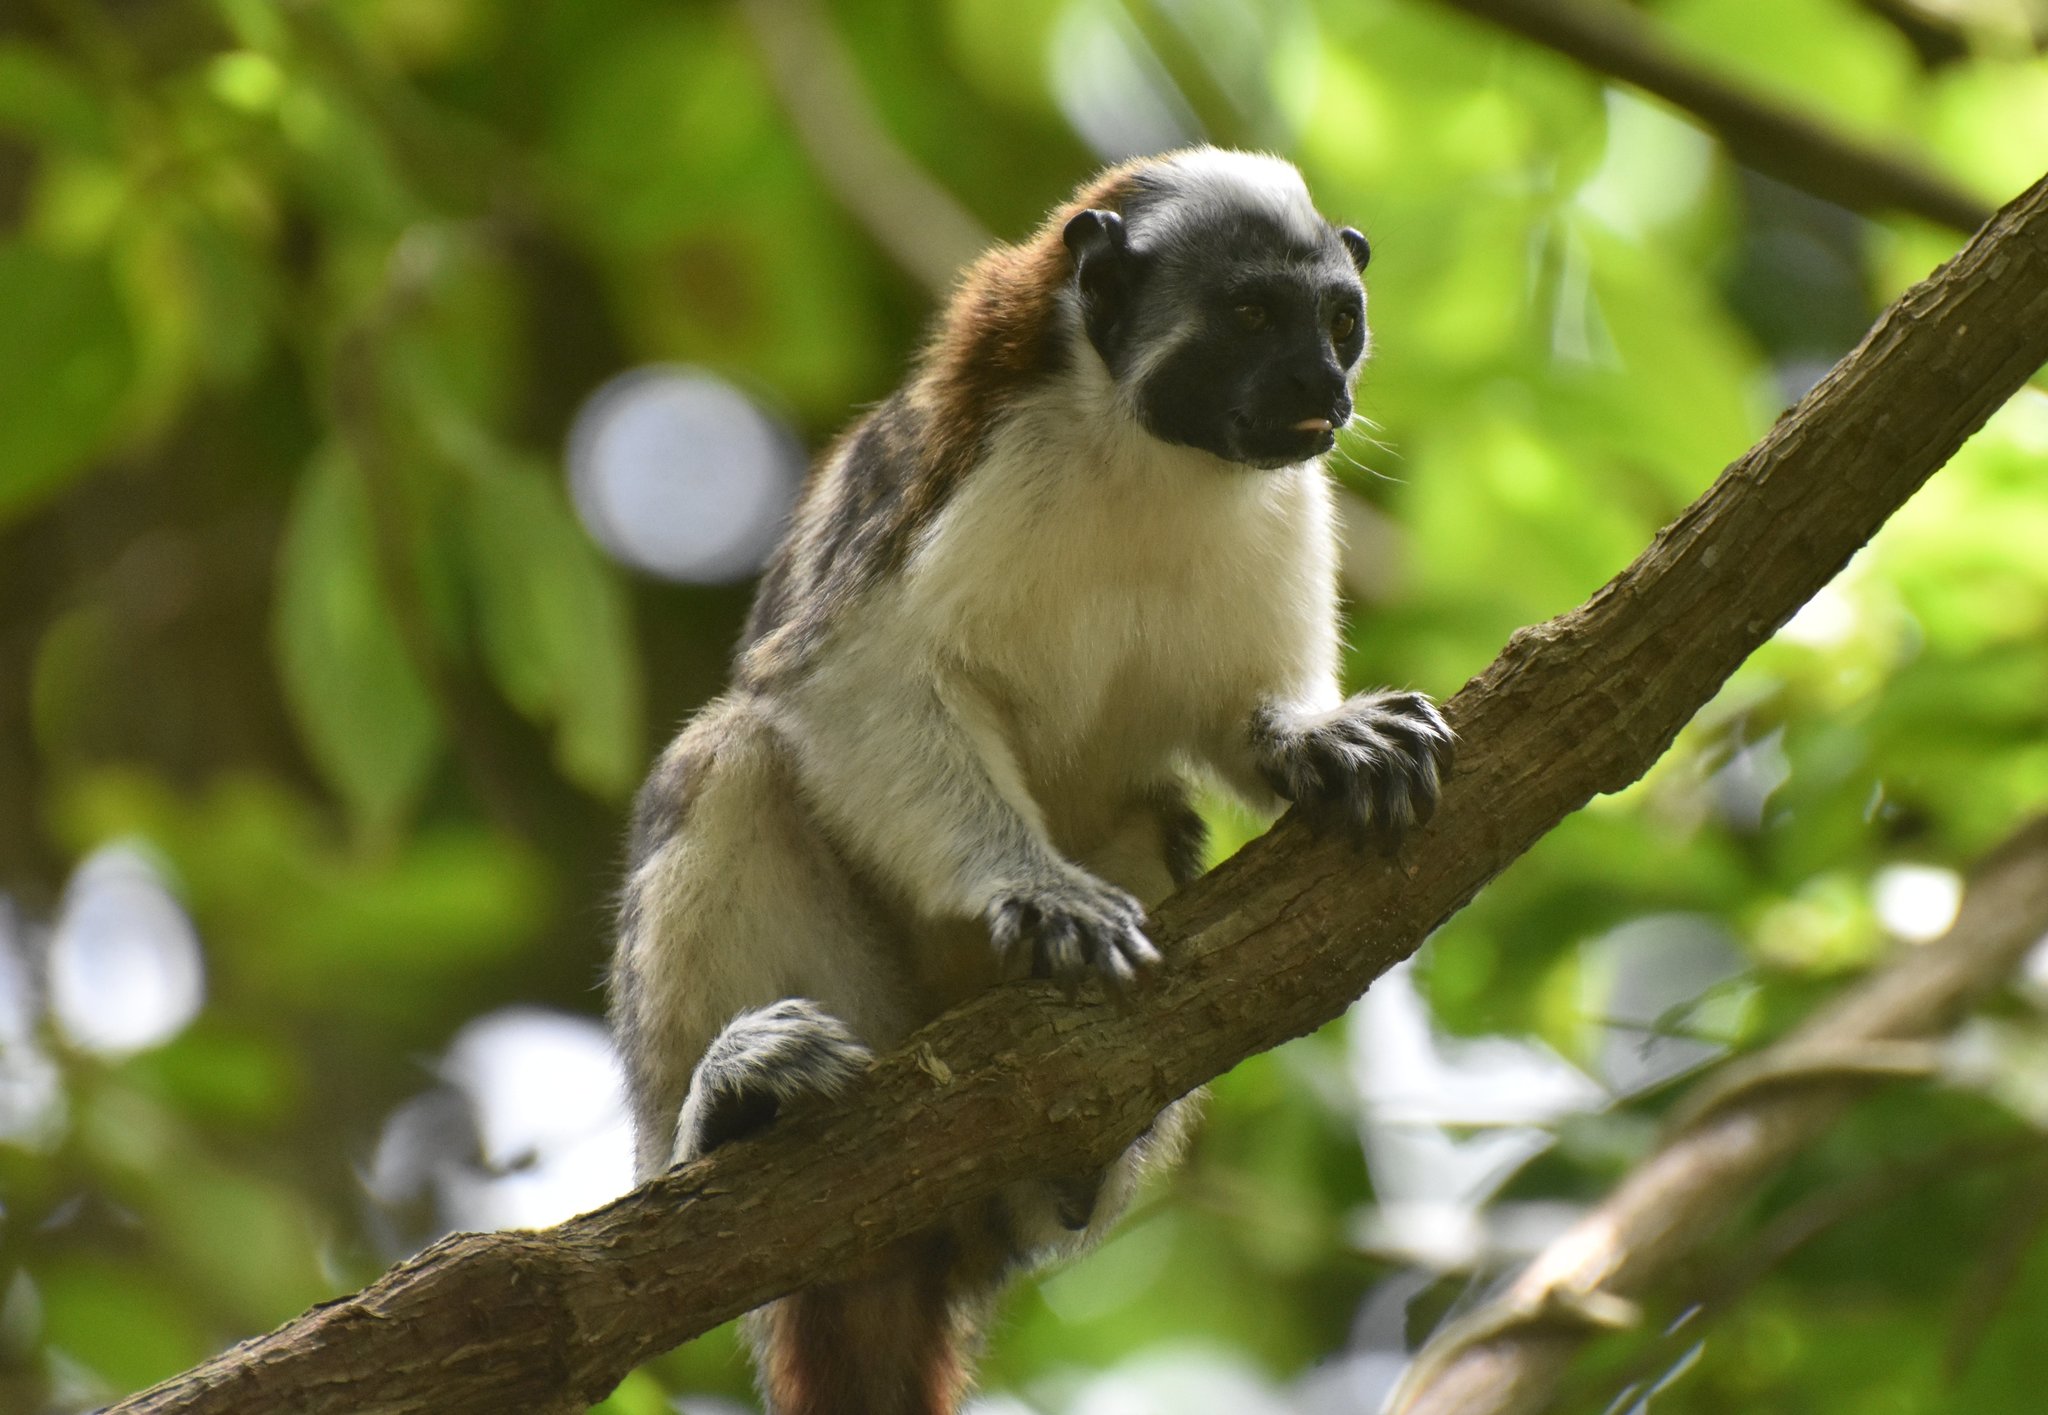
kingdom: Animalia
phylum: Chordata
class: Mammalia
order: Primates
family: Callitrichidae
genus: Saguinus
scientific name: Saguinus geoffroyi
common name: Geoffroy s tamarin
